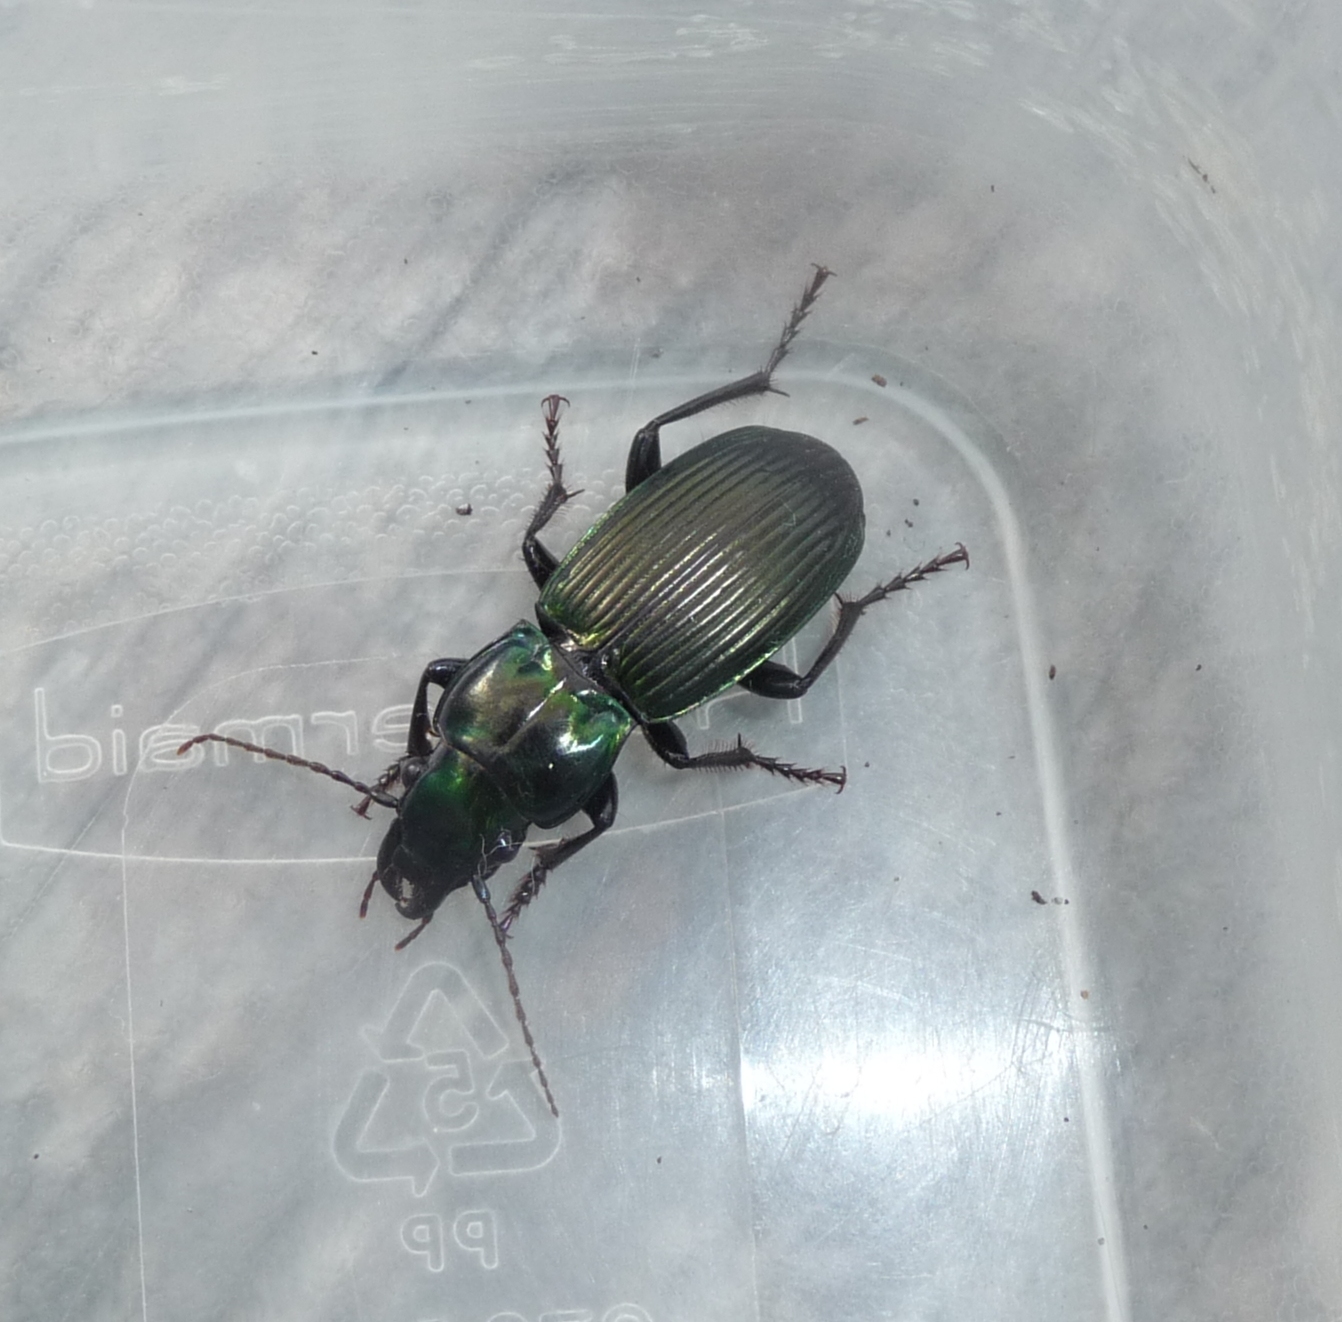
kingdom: Animalia
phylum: Arthropoda
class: Insecta
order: Coleoptera
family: Carabidae
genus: Megadromus
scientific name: Megadromus capito
